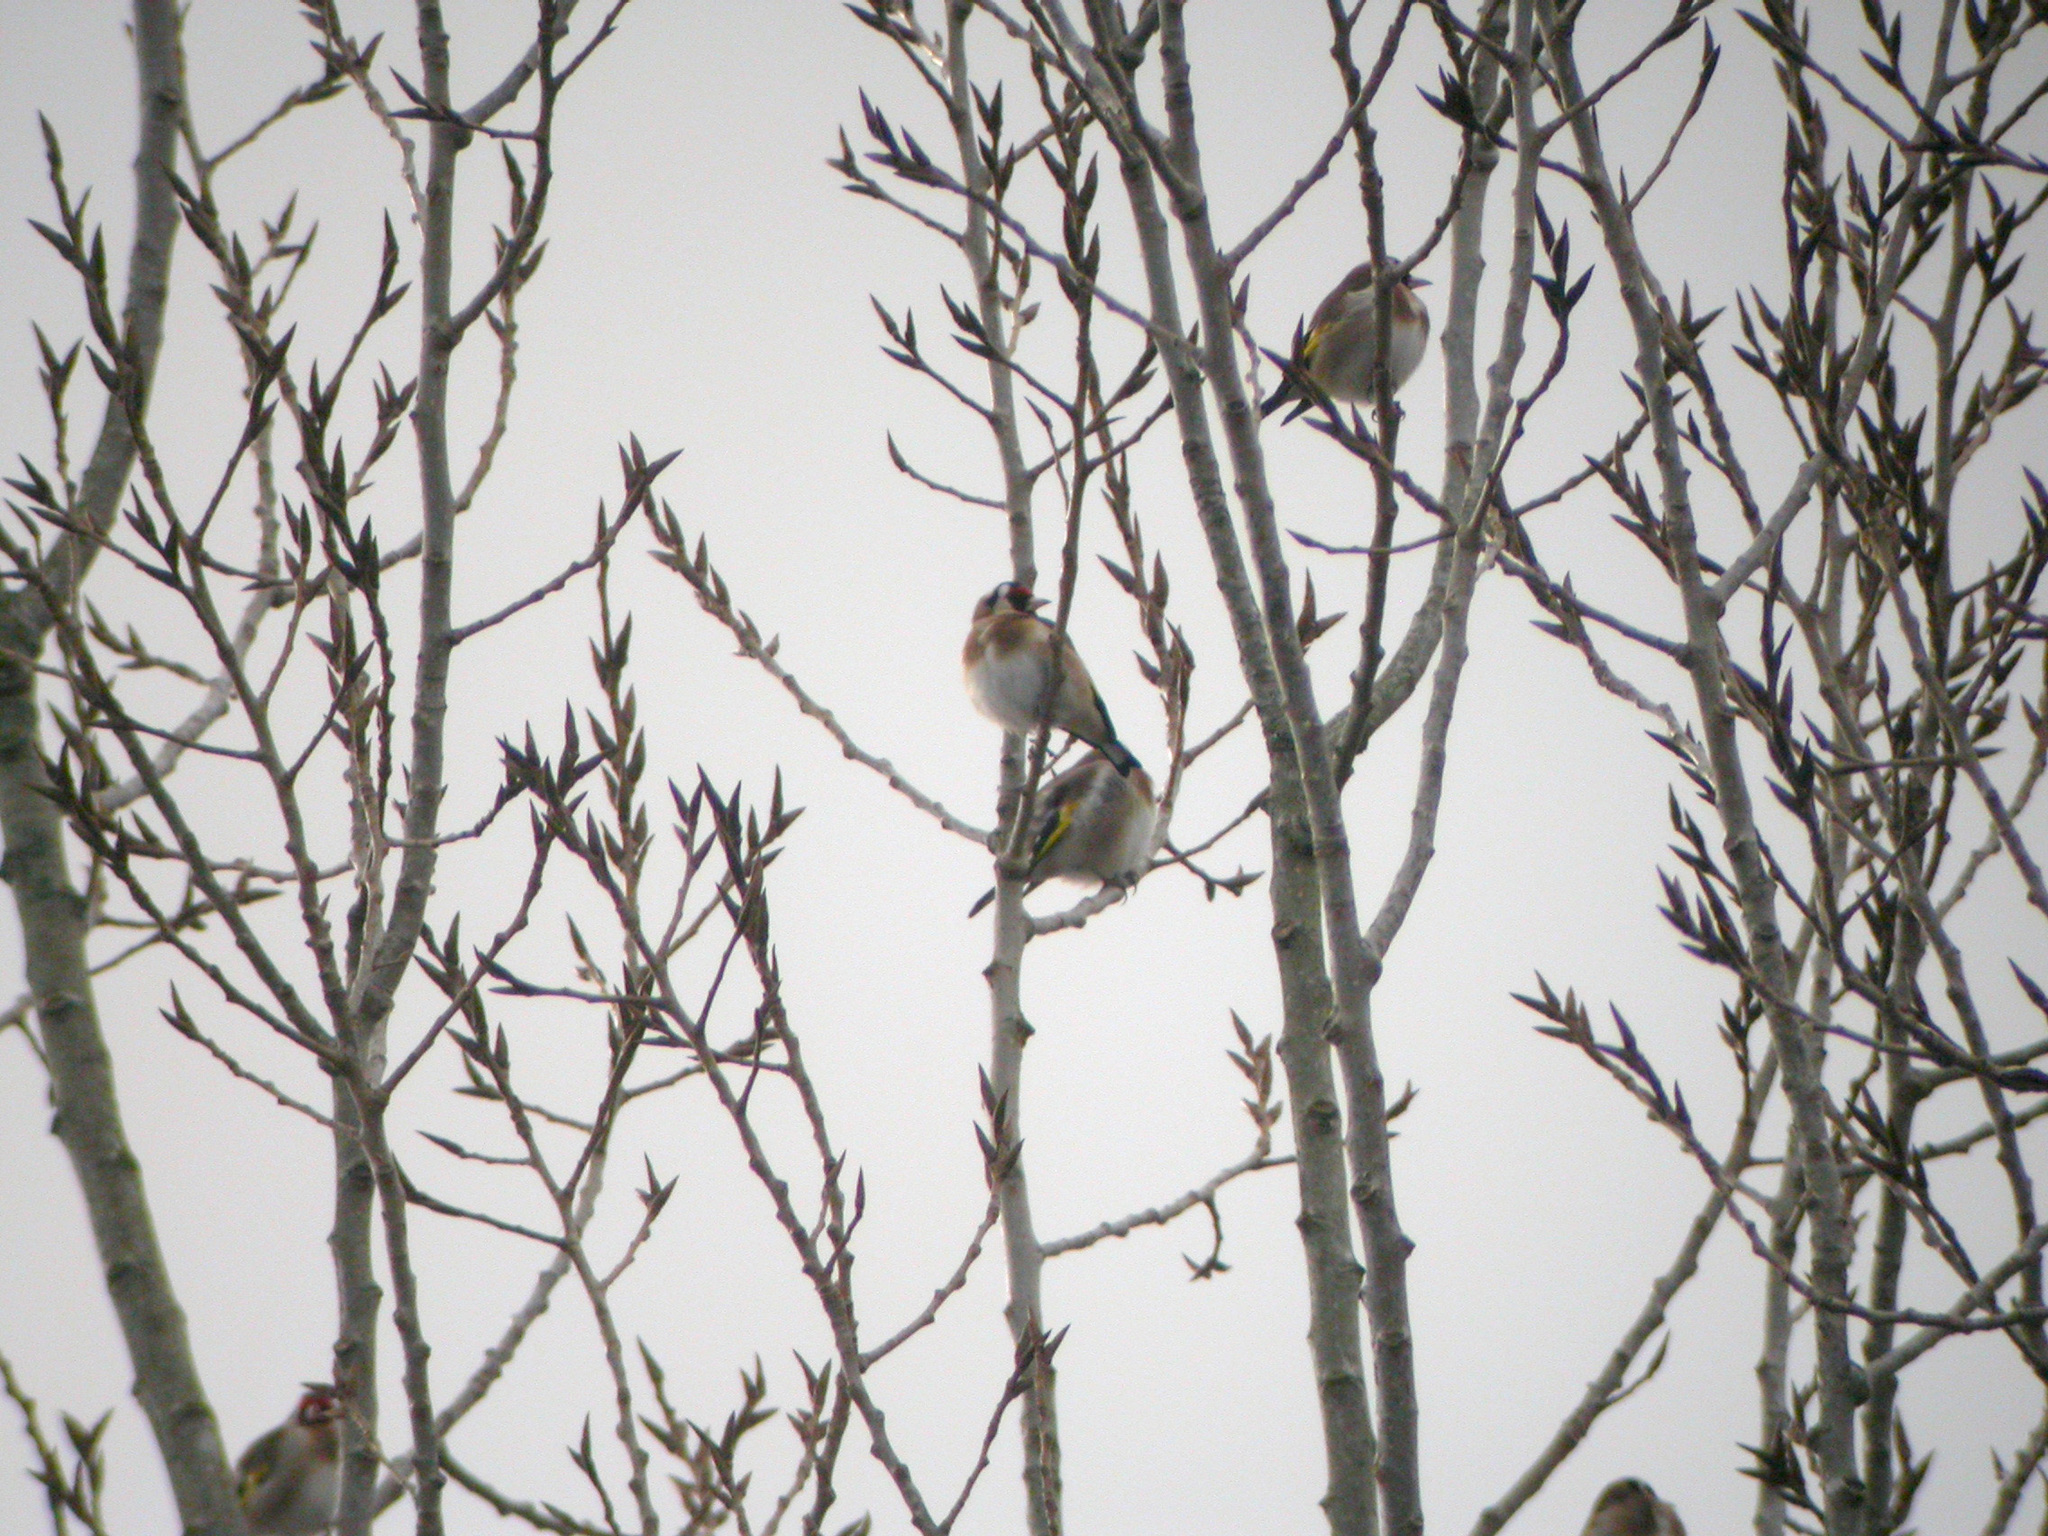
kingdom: Animalia
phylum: Chordata
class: Aves
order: Passeriformes
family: Fringillidae
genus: Carduelis
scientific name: Carduelis carduelis
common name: European goldfinch
